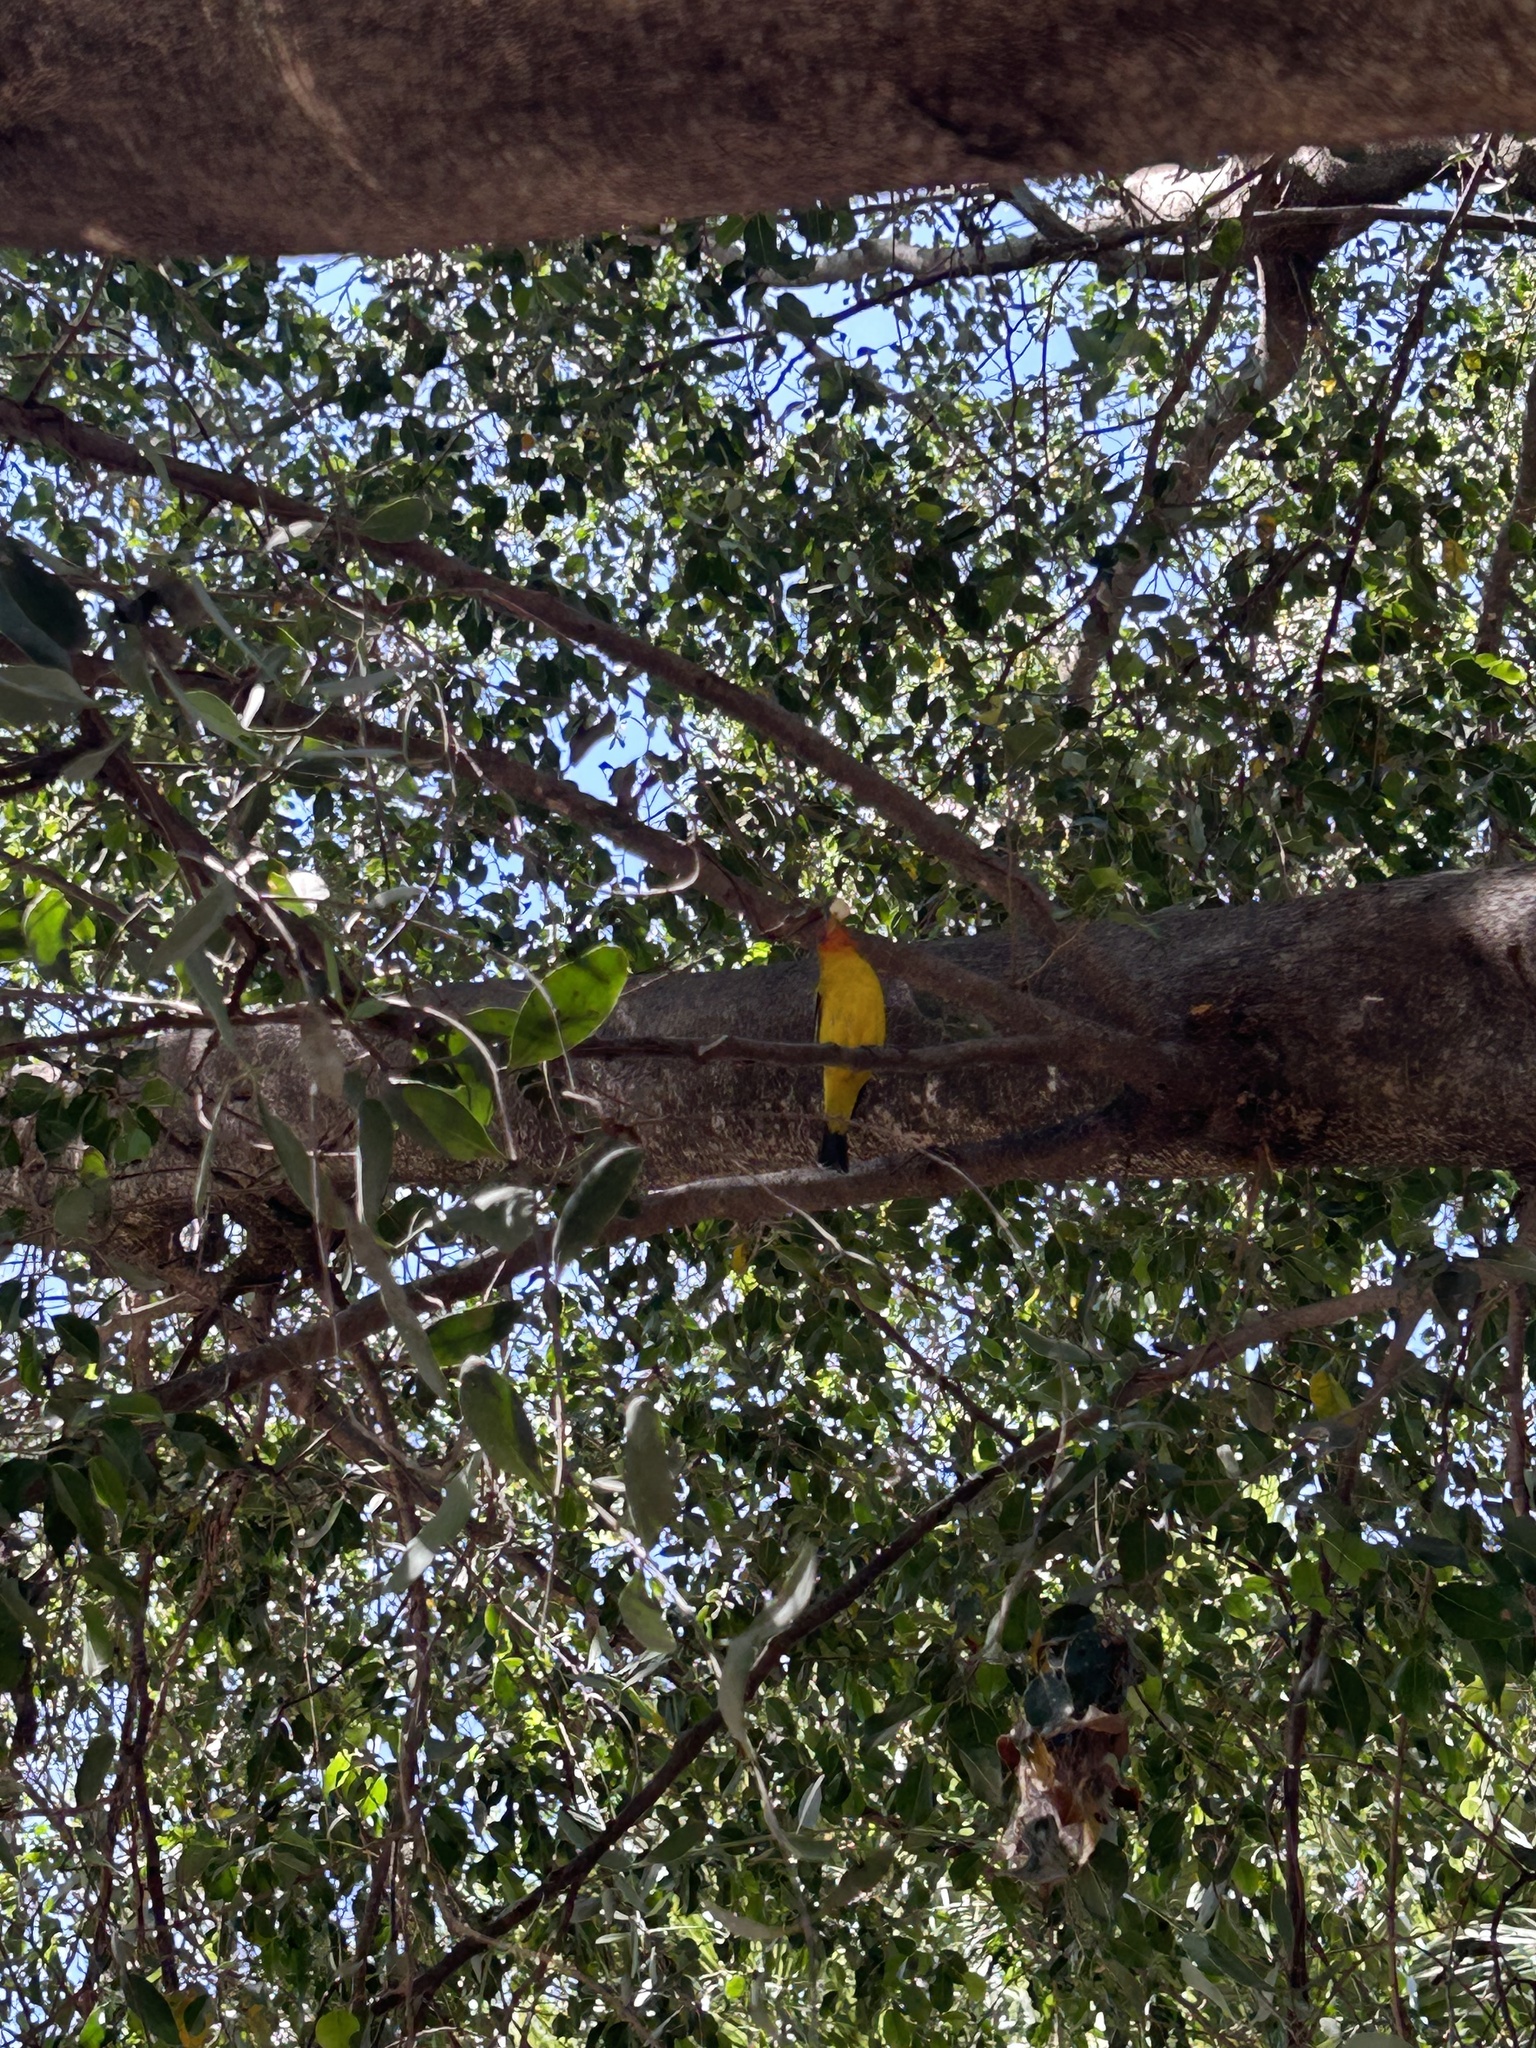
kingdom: Animalia
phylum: Chordata
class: Aves
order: Passeriformes
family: Cardinalidae
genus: Piranga
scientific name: Piranga ludoviciana
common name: Western tanager
